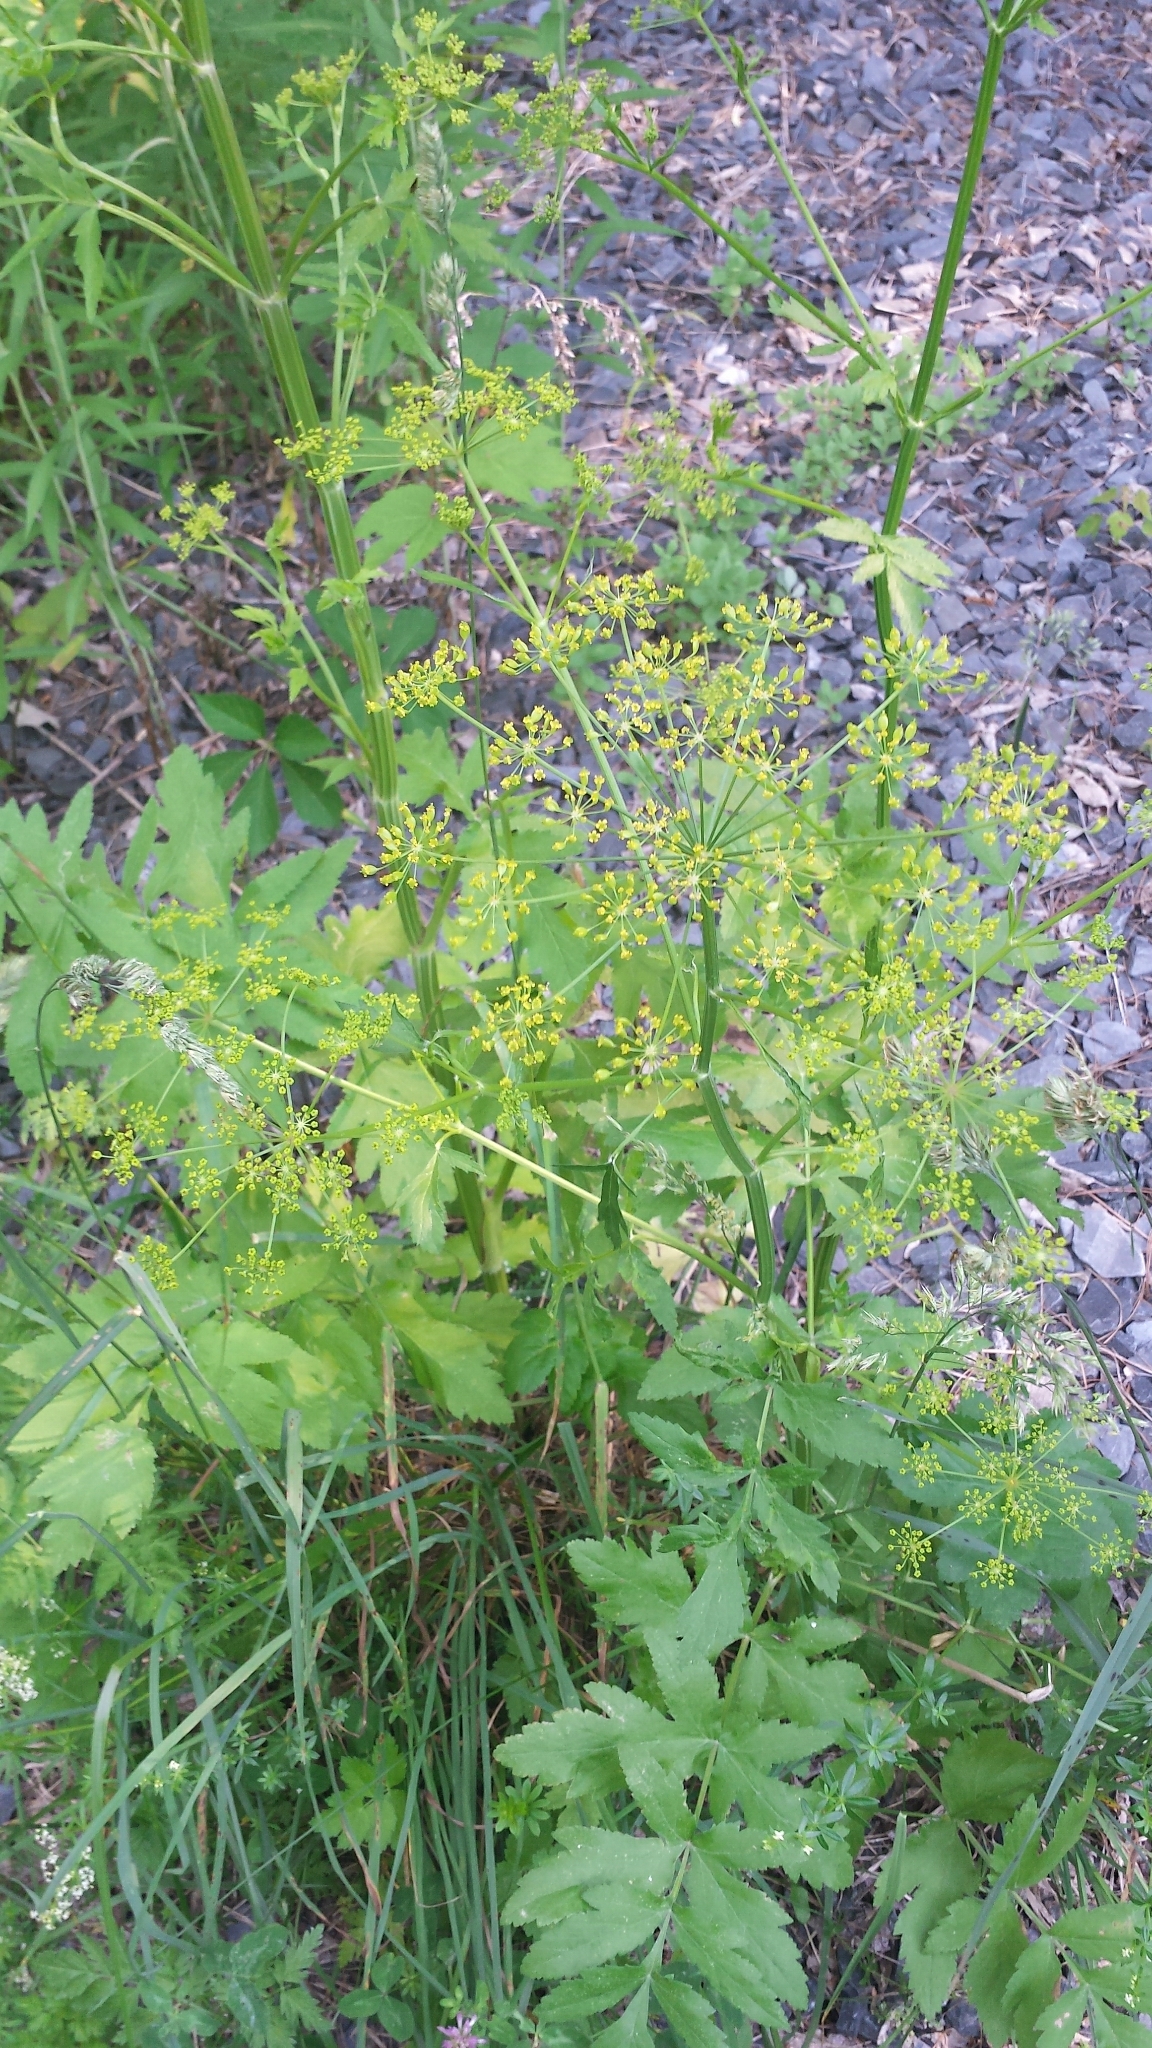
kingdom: Plantae
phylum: Tracheophyta
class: Magnoliopsida
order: Apiales
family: Apiaceae
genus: Pastinaca
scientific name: Pastinaca sativa
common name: Wild parsnip
